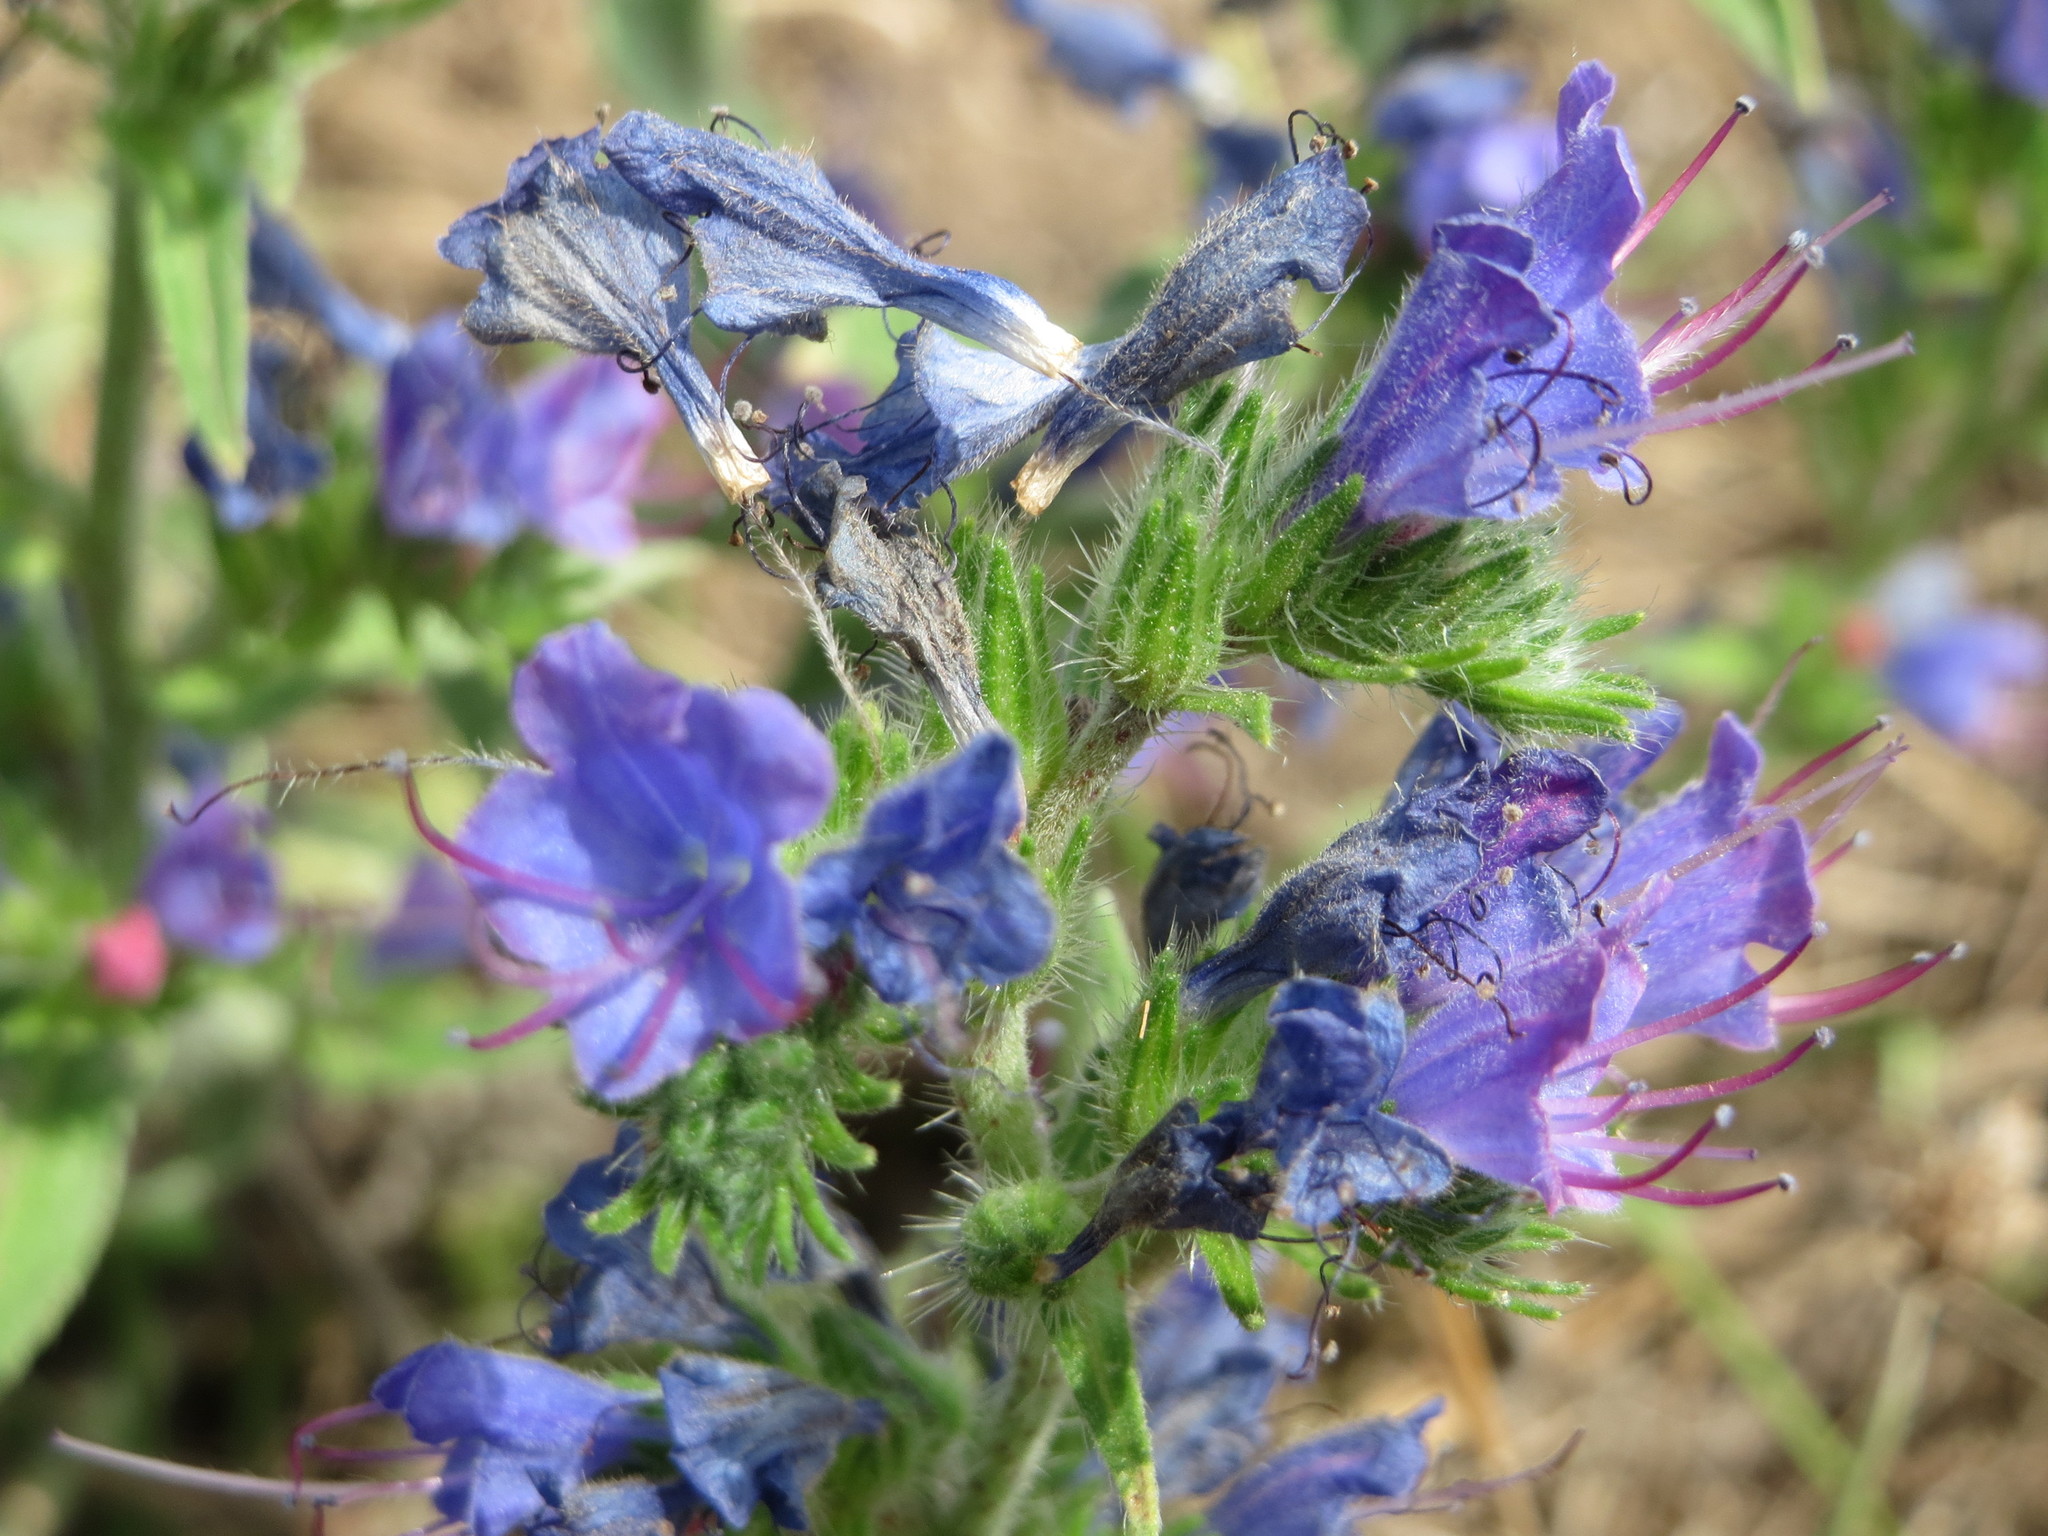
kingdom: Plantae
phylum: Tracheophyta
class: Magnoliopsida
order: Boraginales
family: Boraginaceae
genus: Echium
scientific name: Echium vulgare
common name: Common viper's bugloss
